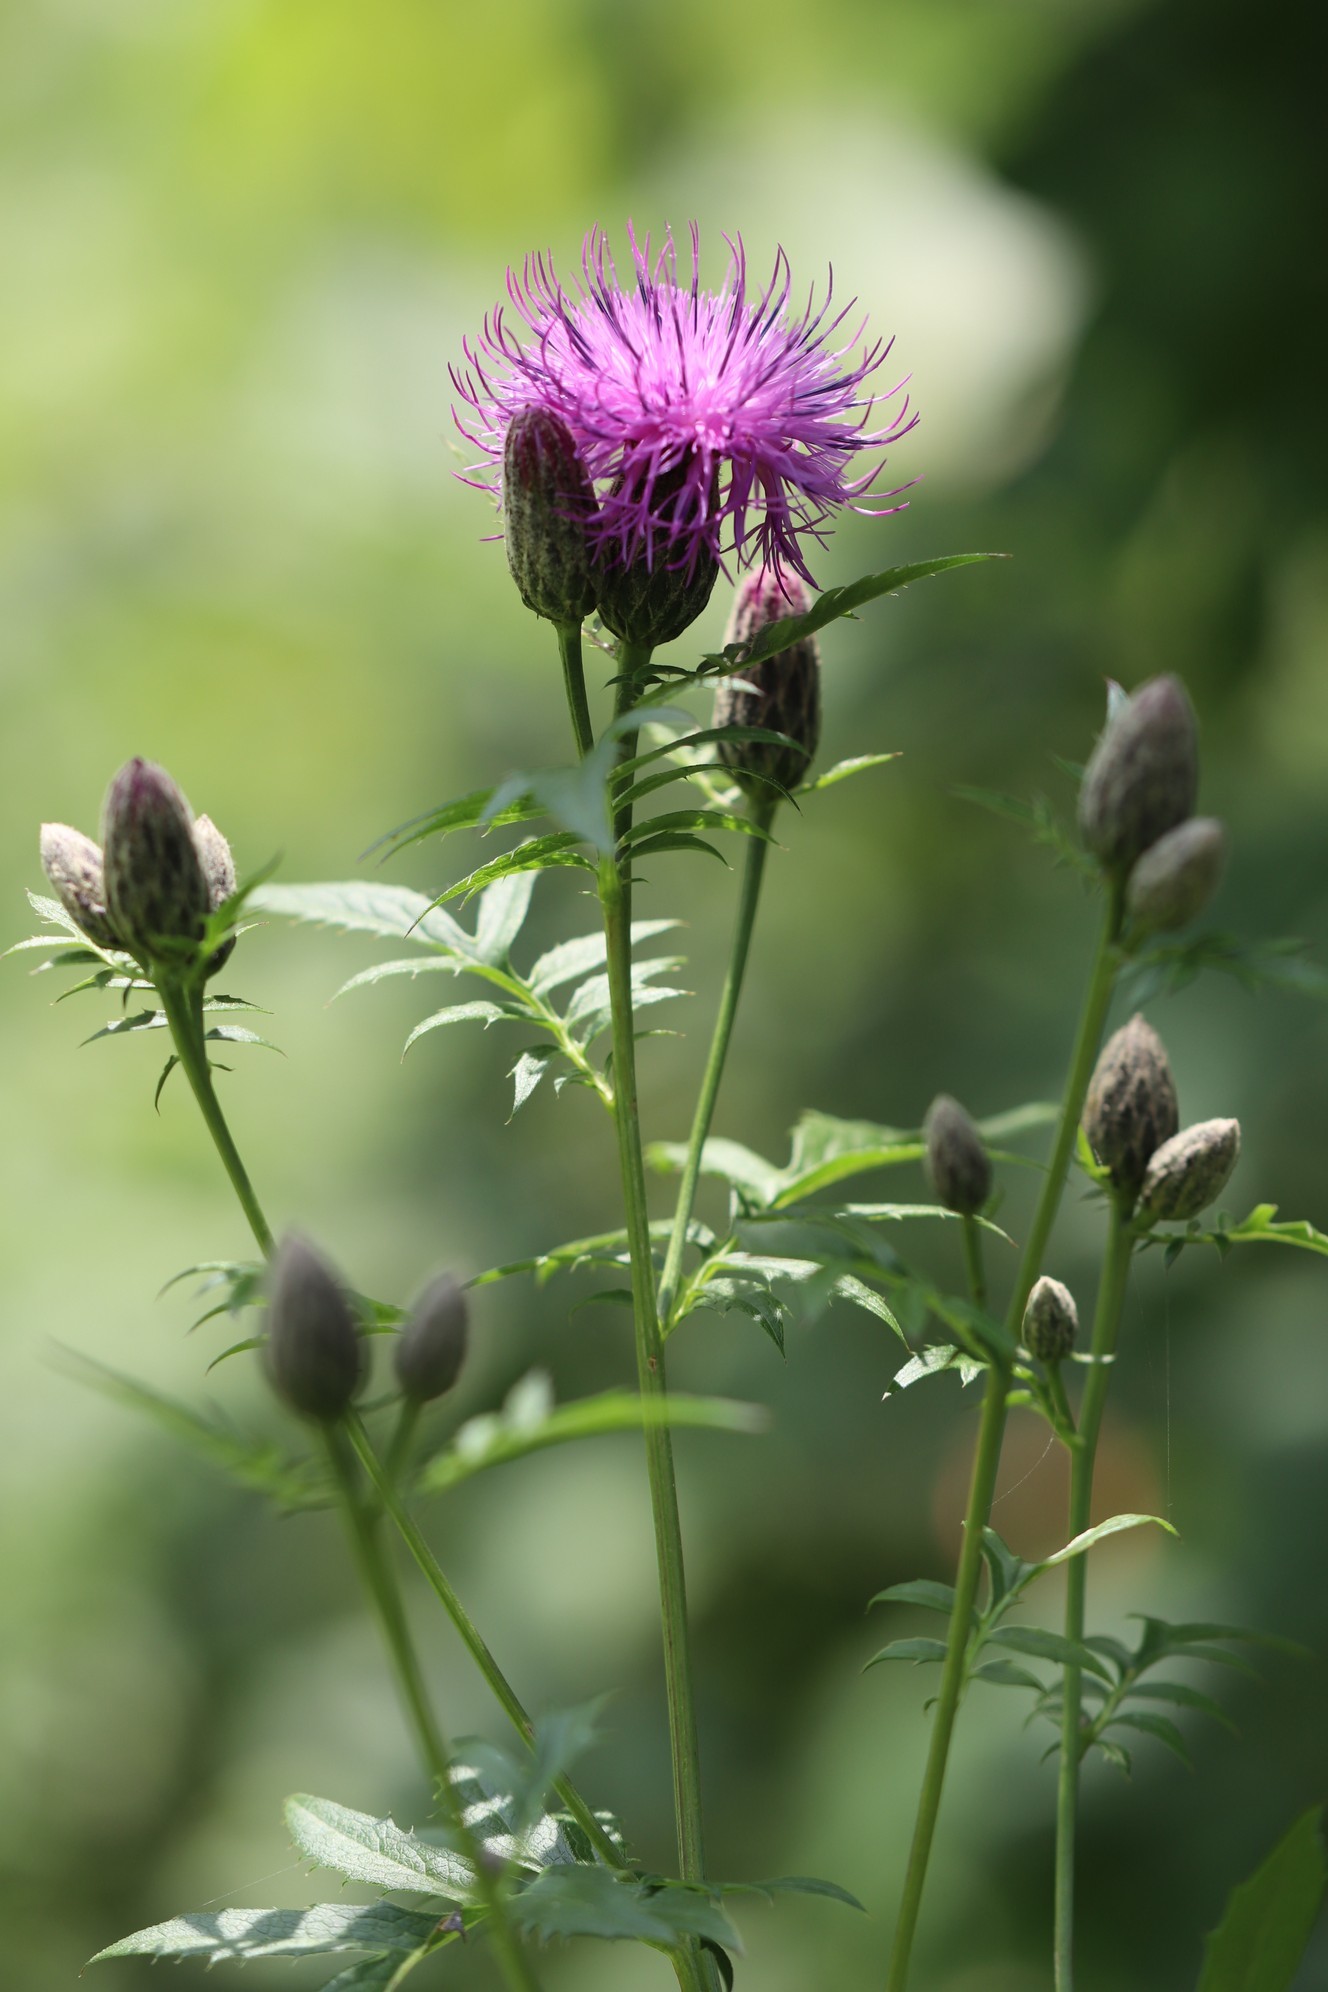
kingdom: Plantae
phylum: Tracheophyta
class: Magnoliopsida
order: Asterales
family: Asteraceae
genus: Serratula
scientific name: Serratula coronata
